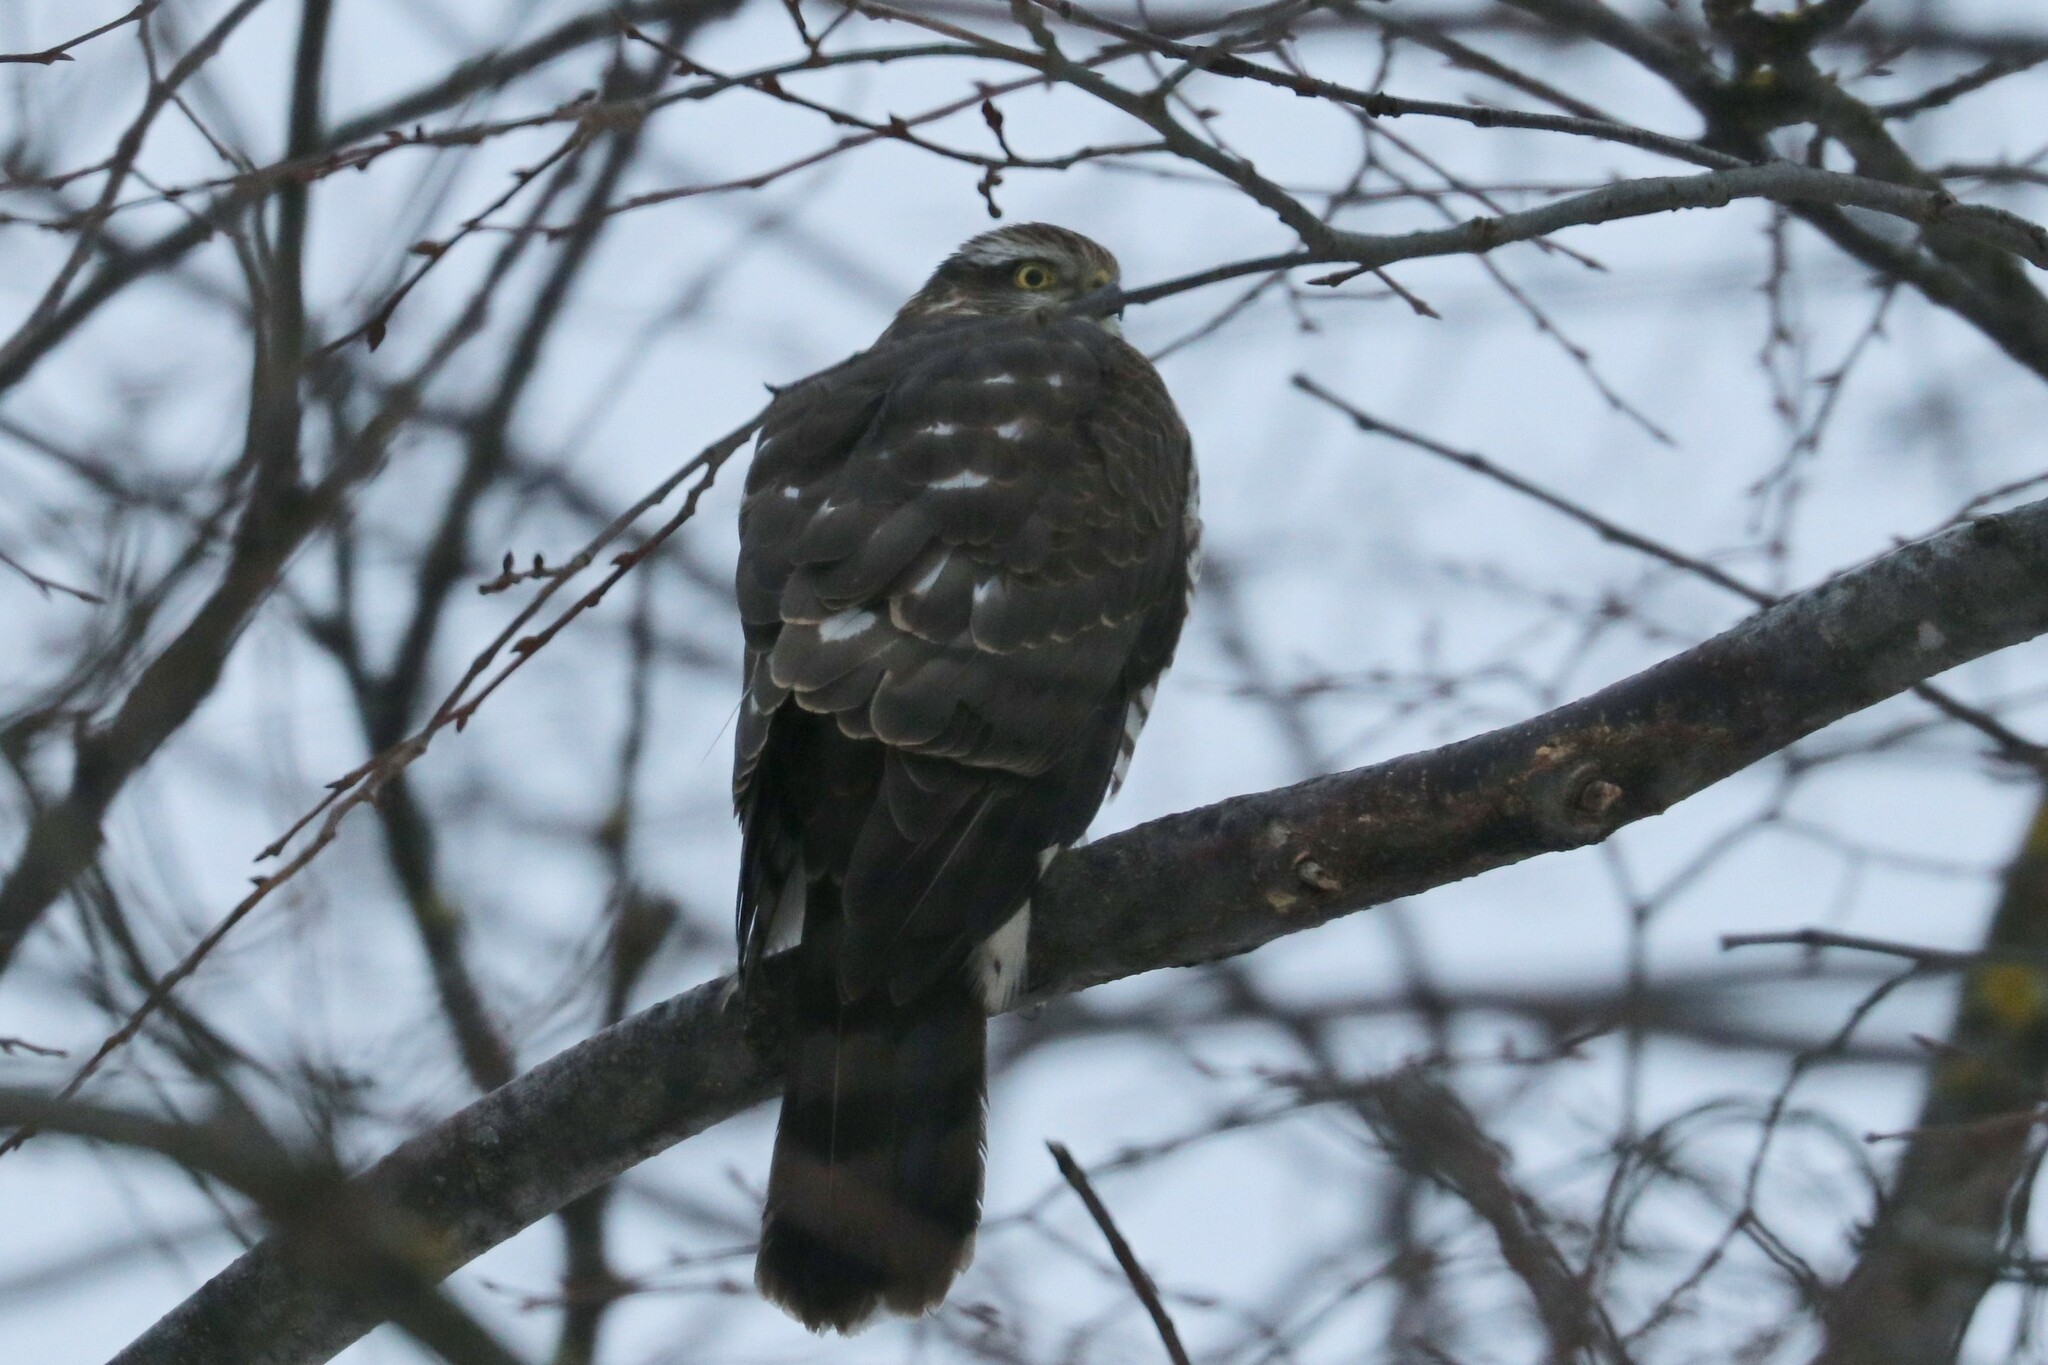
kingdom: Animalia
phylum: Chordata
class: Aves
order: Accipitriformes
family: Accipitridae
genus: Accipiter
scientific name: Accipiter nisus
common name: Eurasian sparrowhawk
